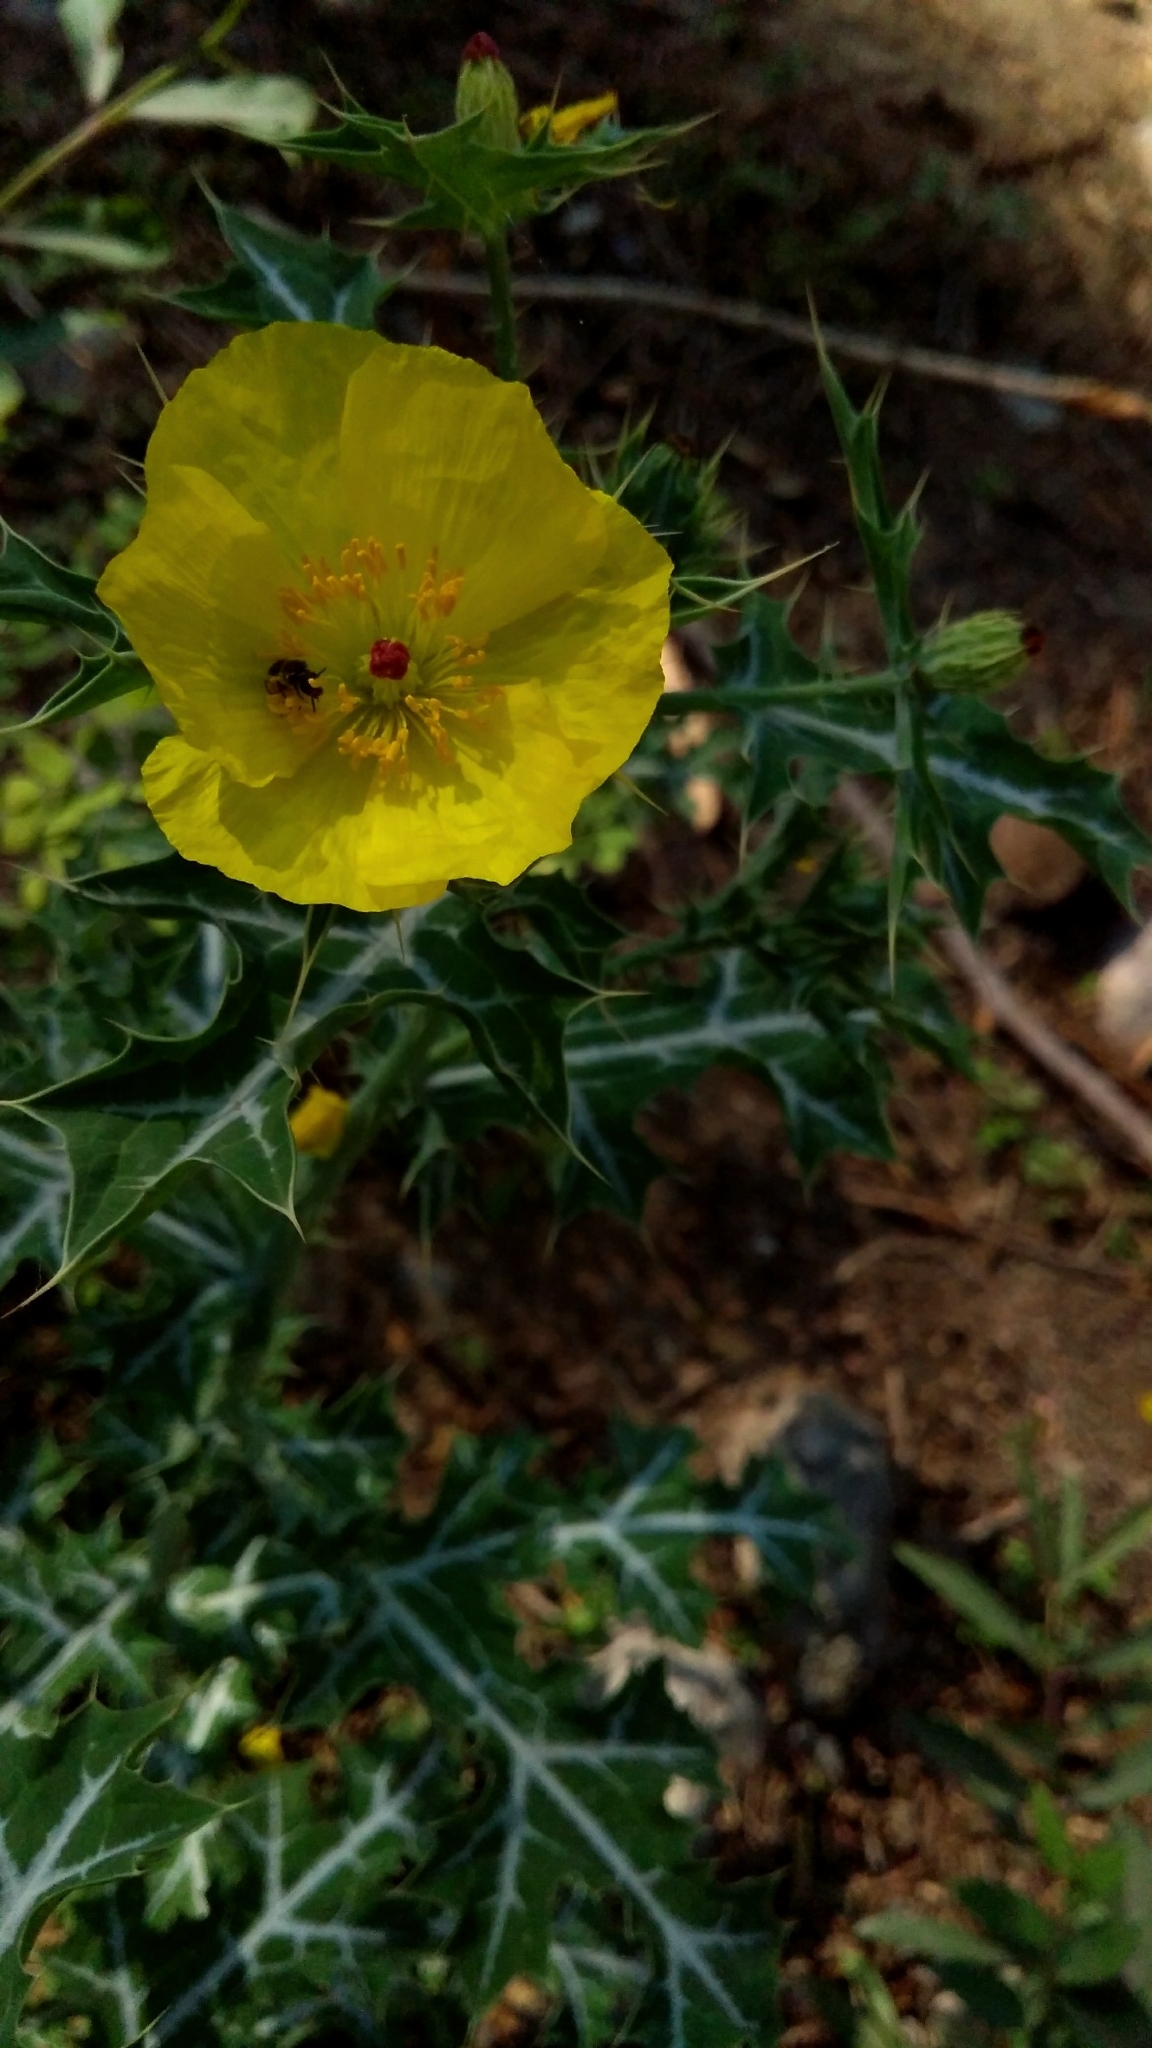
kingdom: Plantae
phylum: Tracheophyta
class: Magnoliopsida
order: Ranunculales
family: Papaveraceae
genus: Argemone
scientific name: Argemone mexicana
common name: Mexican poppy
